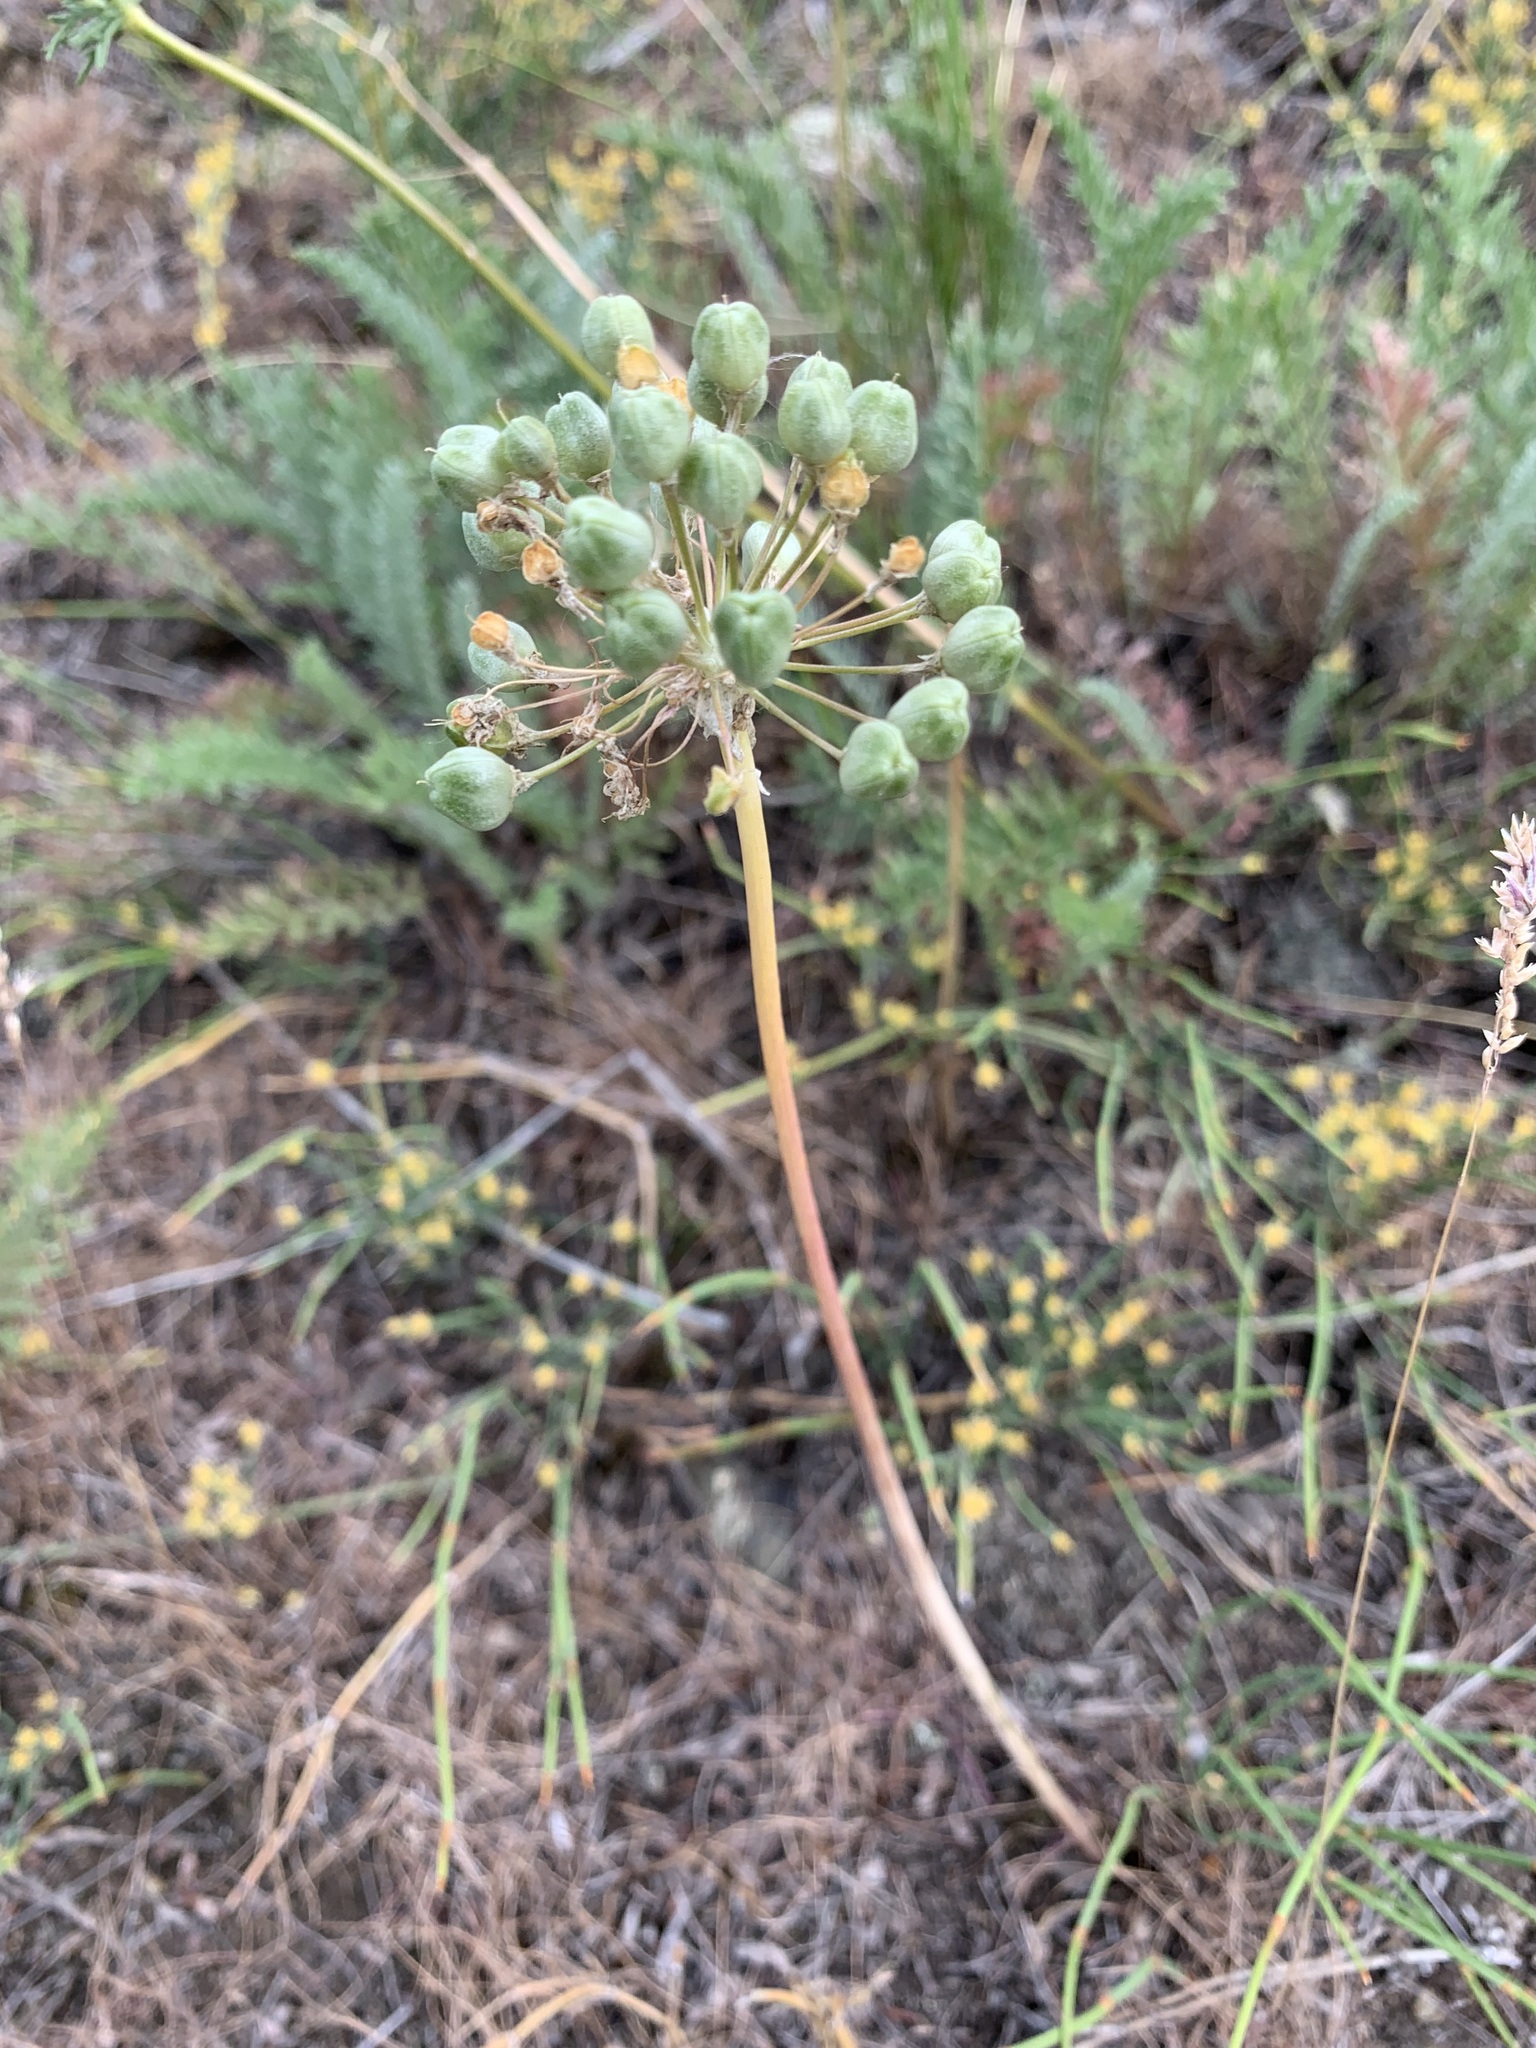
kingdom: Plantae
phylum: Tracheophyta
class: Liliopsida
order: Asparagales
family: Amaryllidaceae
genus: Allium
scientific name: Allium tulipifolium
